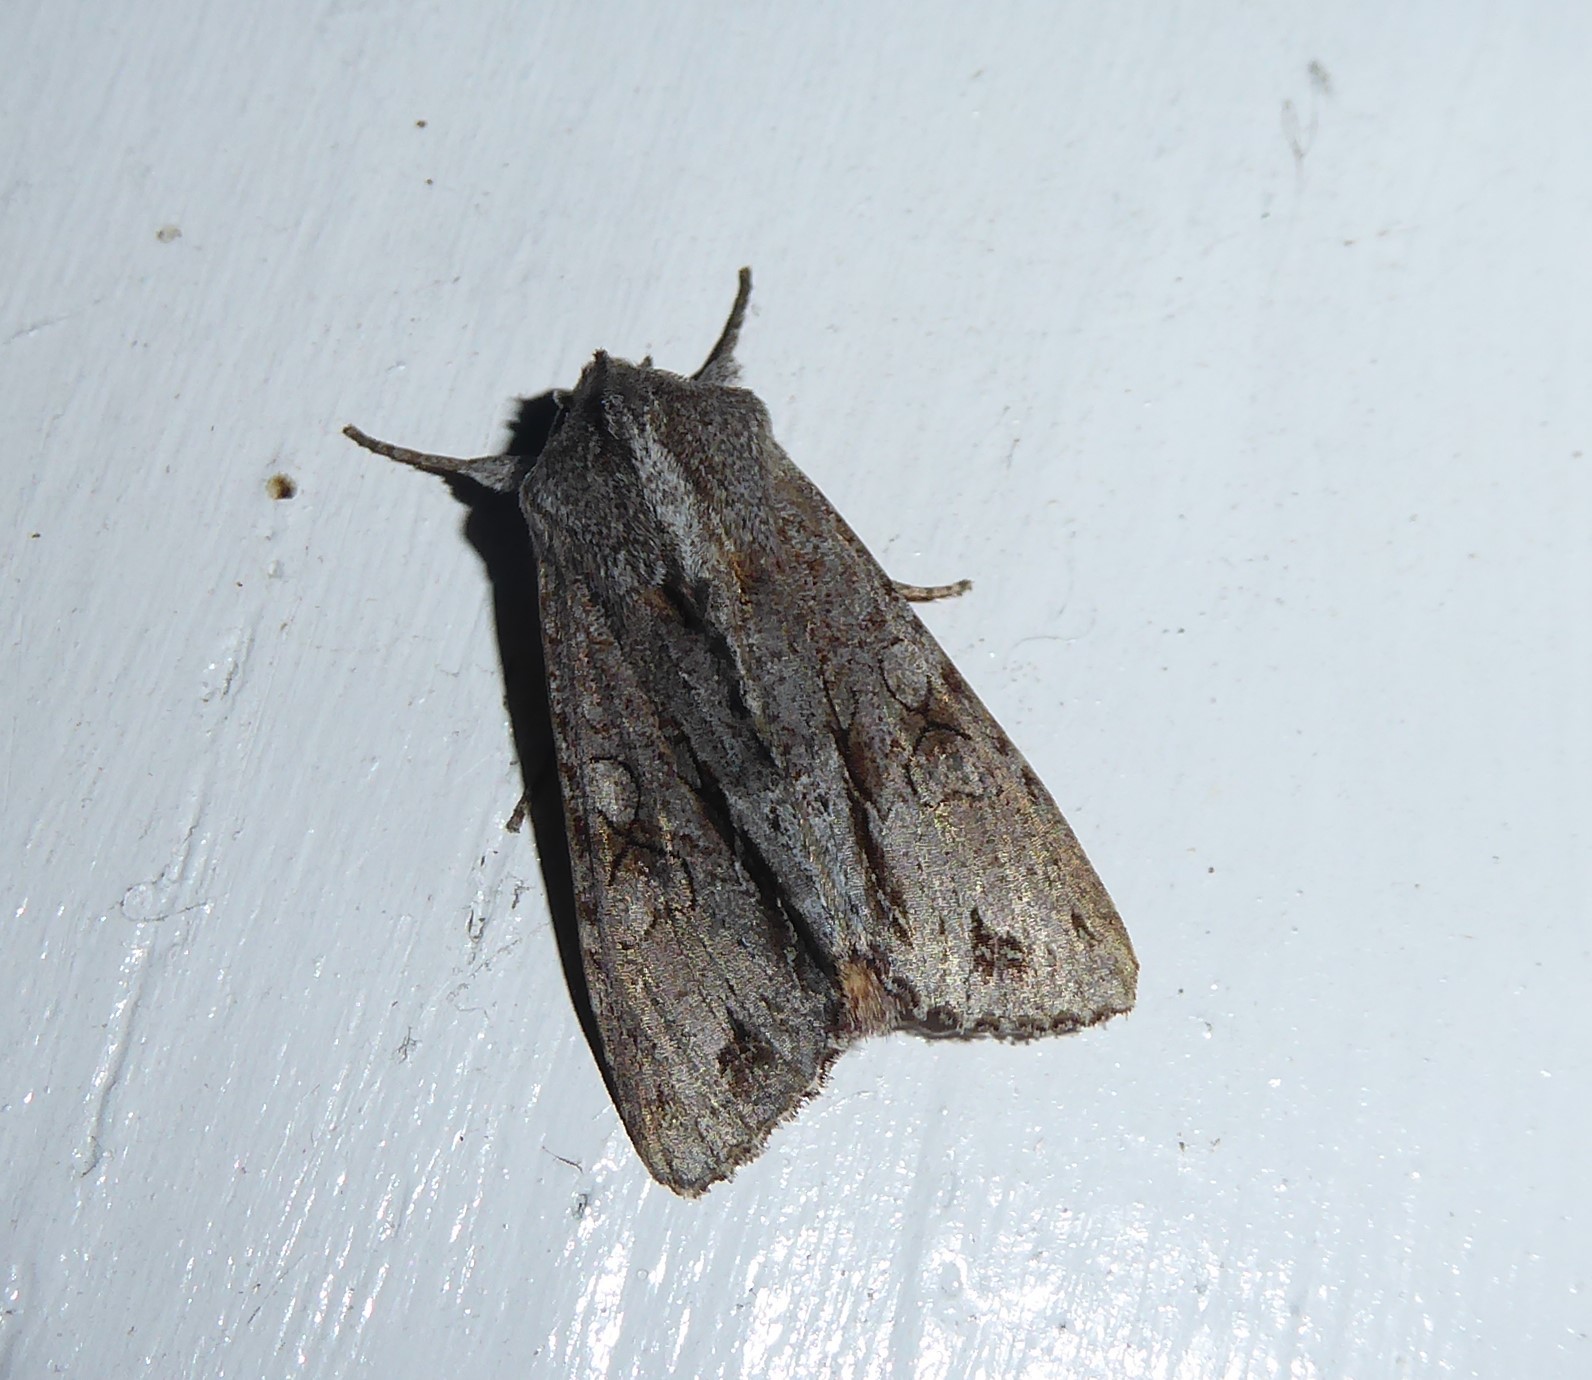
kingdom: Animalia
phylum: Arthropoda
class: Insecta
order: Lepidoptera
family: Noctuidae
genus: Ichneutica
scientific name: Ichneutica
